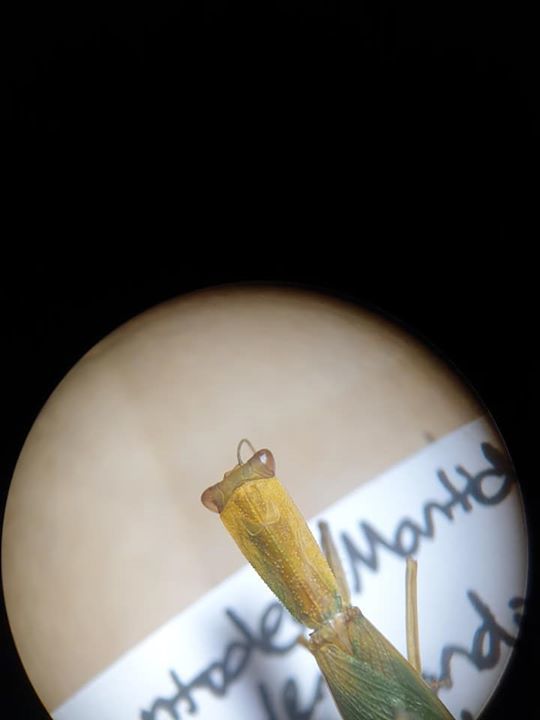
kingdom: Animalia
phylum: Arthropoda
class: Insecta
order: Mantodea
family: Mantidae
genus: Orthodera
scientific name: Orthodera novaezealandiae
